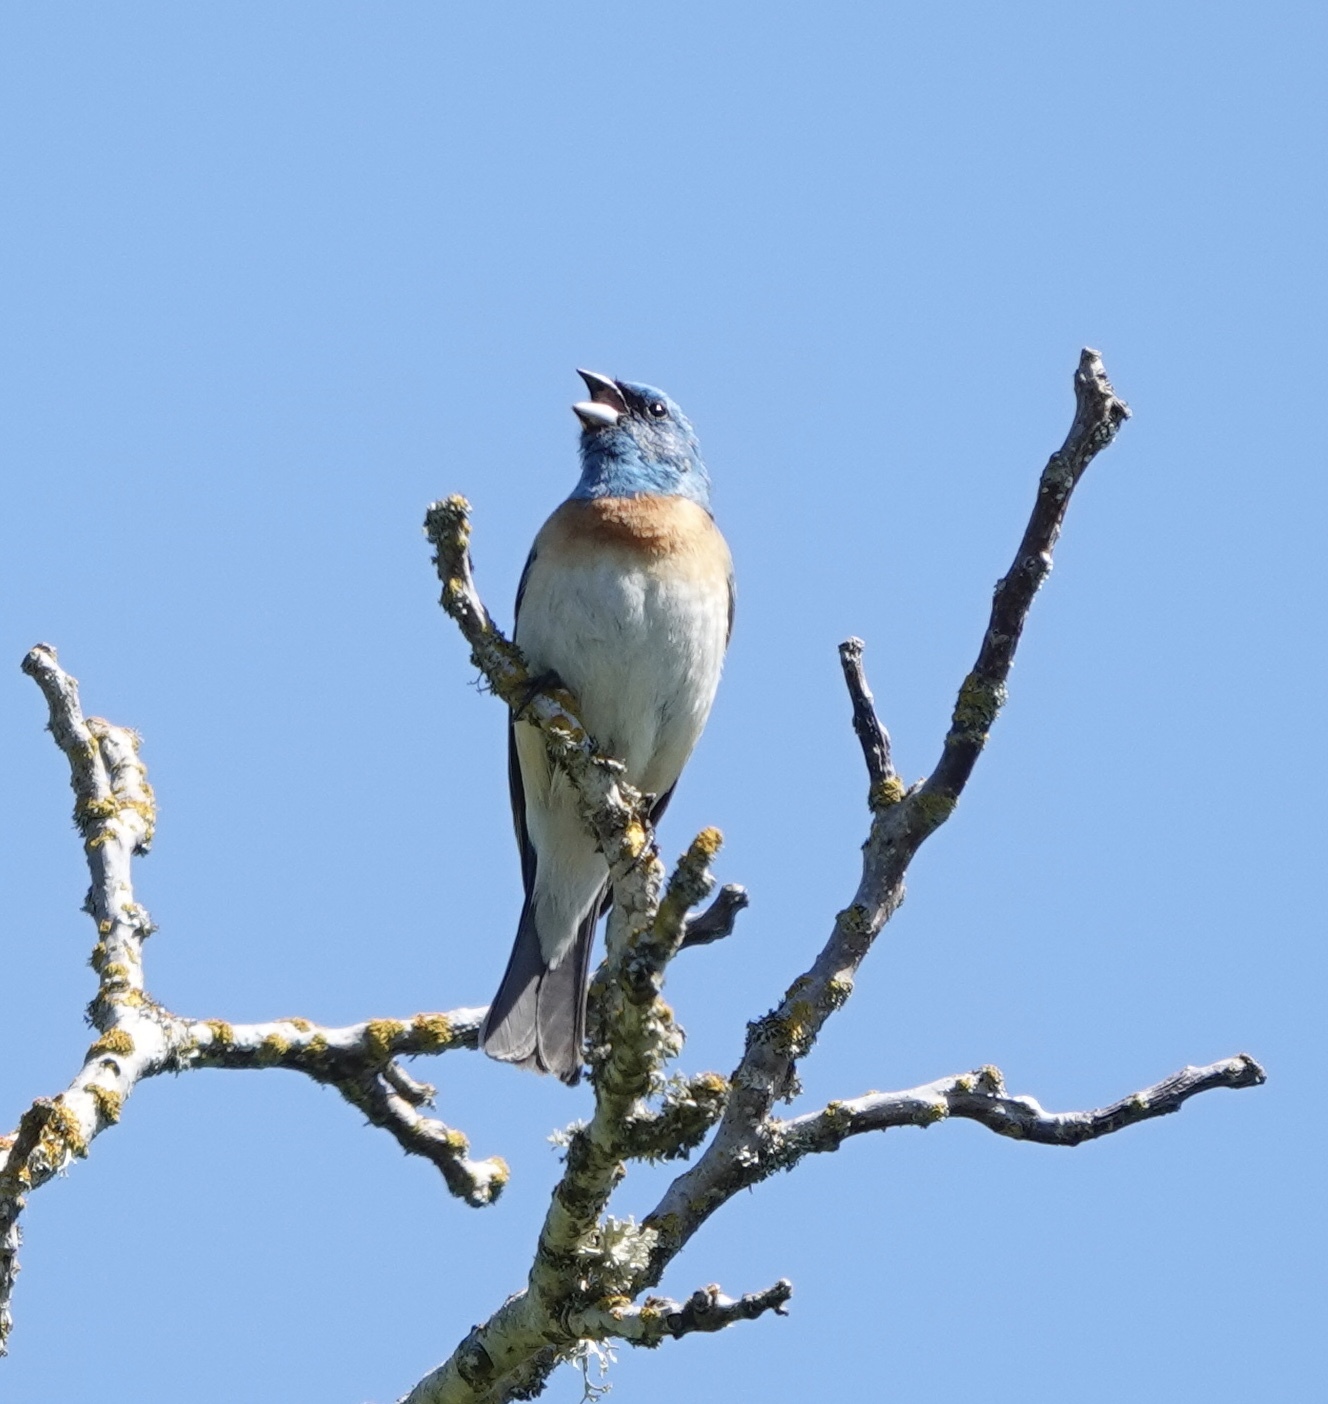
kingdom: Animalia
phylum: Chordata
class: Aves
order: Passeriformes
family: Cardinalidae
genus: Passerina
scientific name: Passerina amoena
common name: Lazuli bunting
